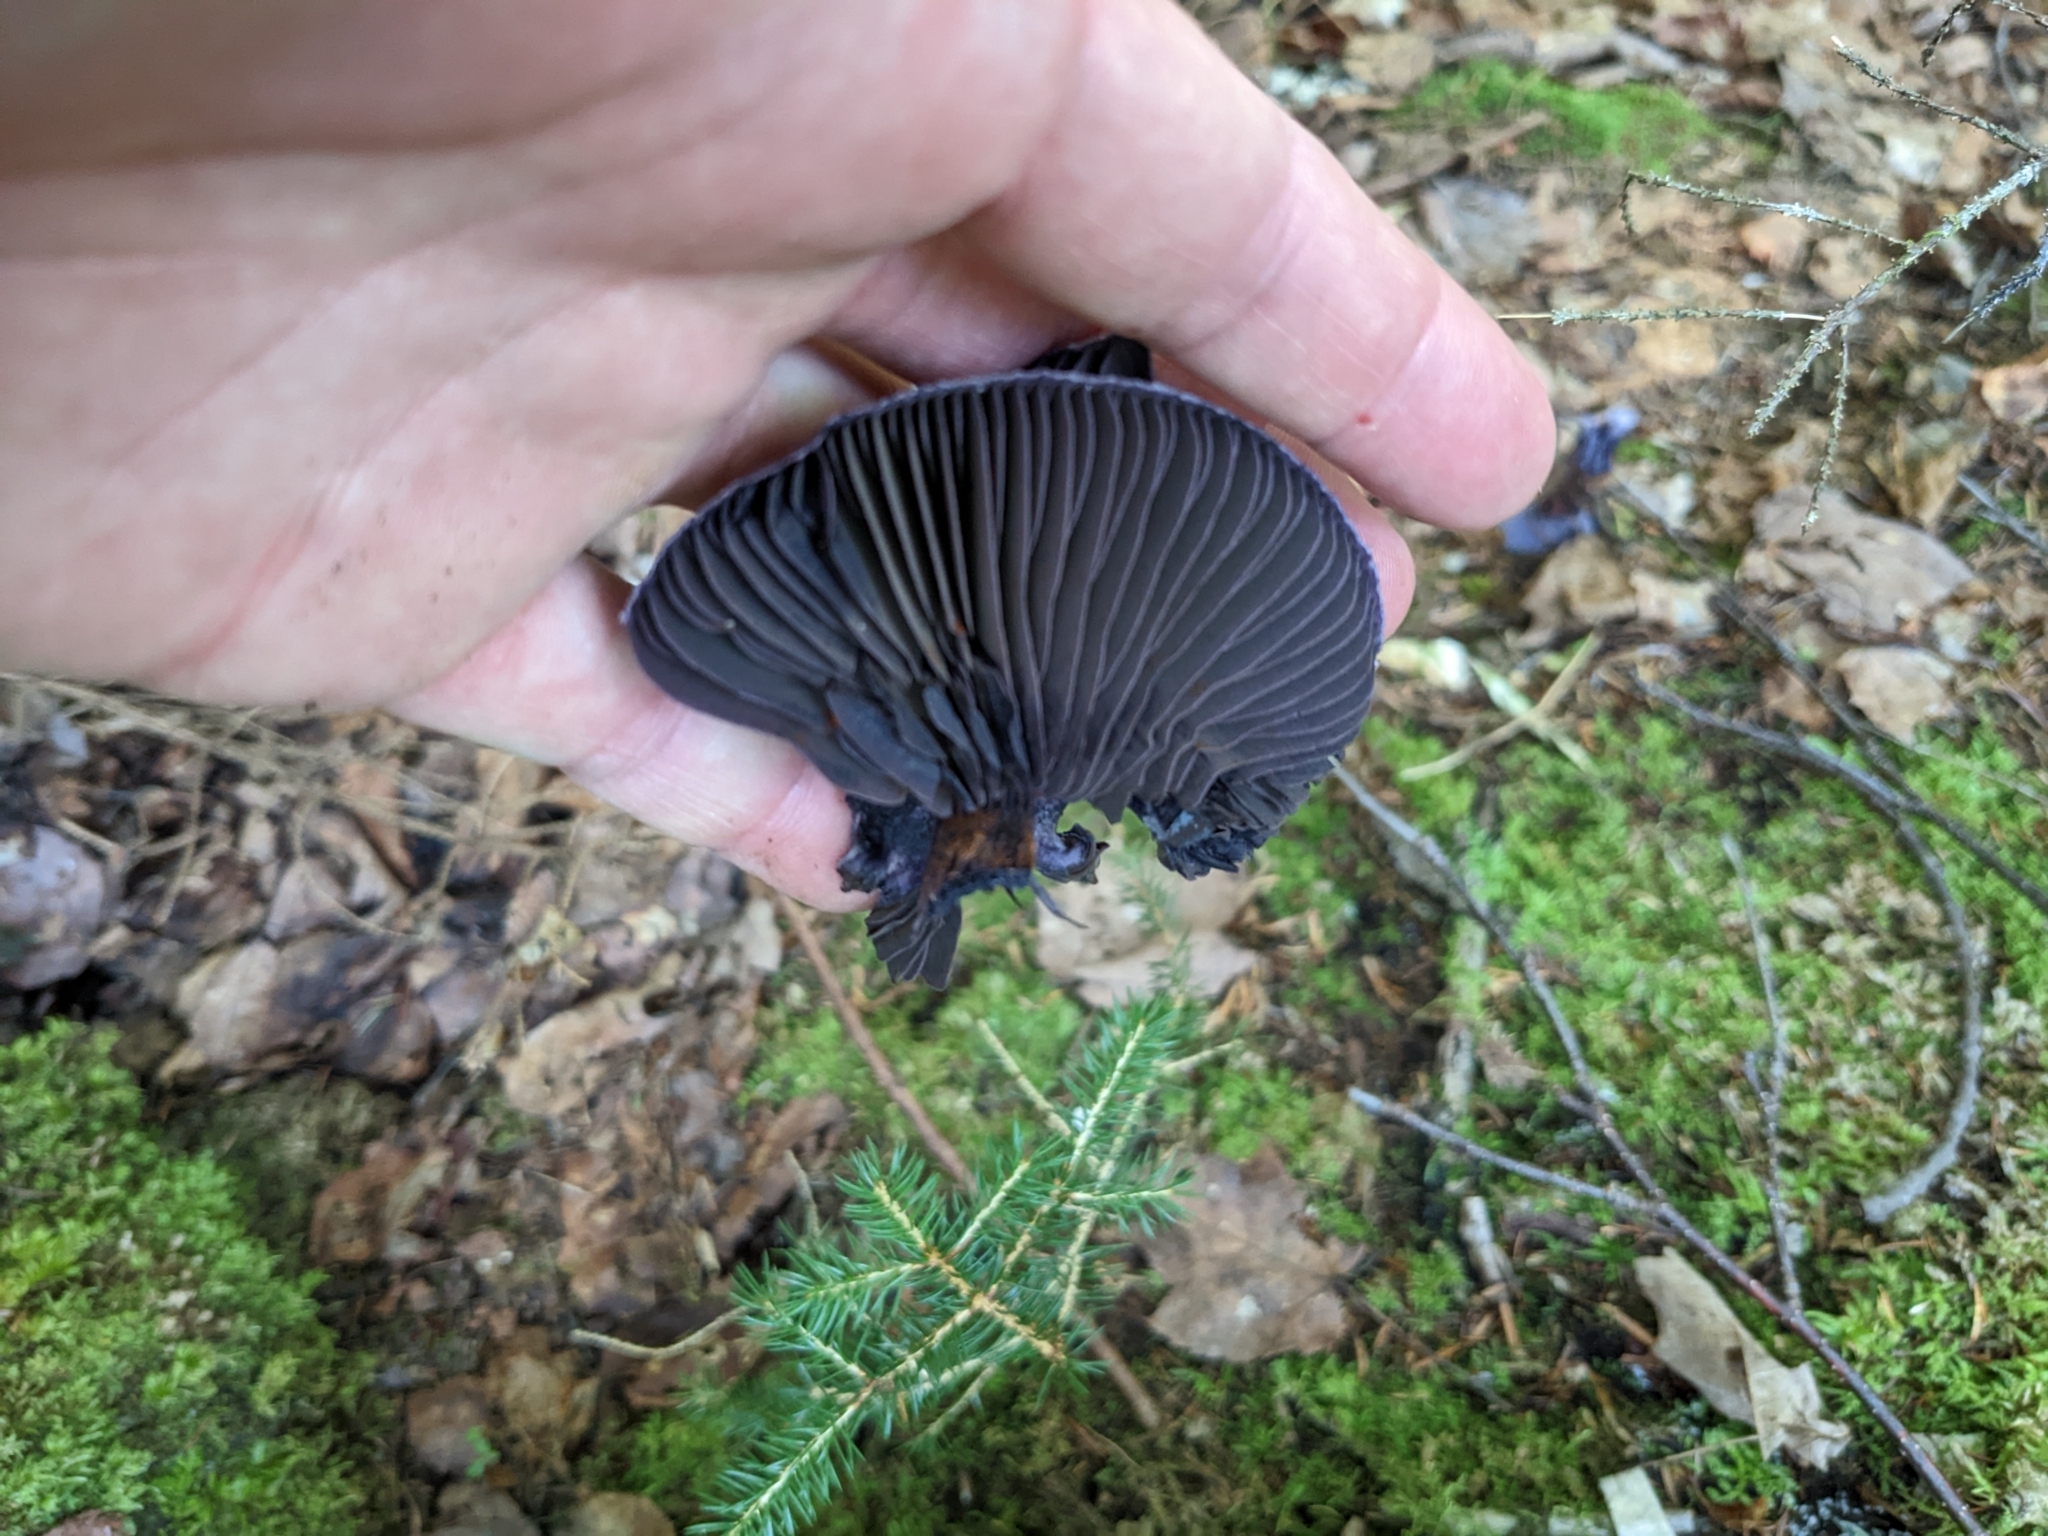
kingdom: Fungi
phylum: Basidiomycota
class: Agaricomycetes
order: Agaricales
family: Cortinariaceae
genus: Cortinarius
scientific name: Cortinarius violaceus
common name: Violet webcap
